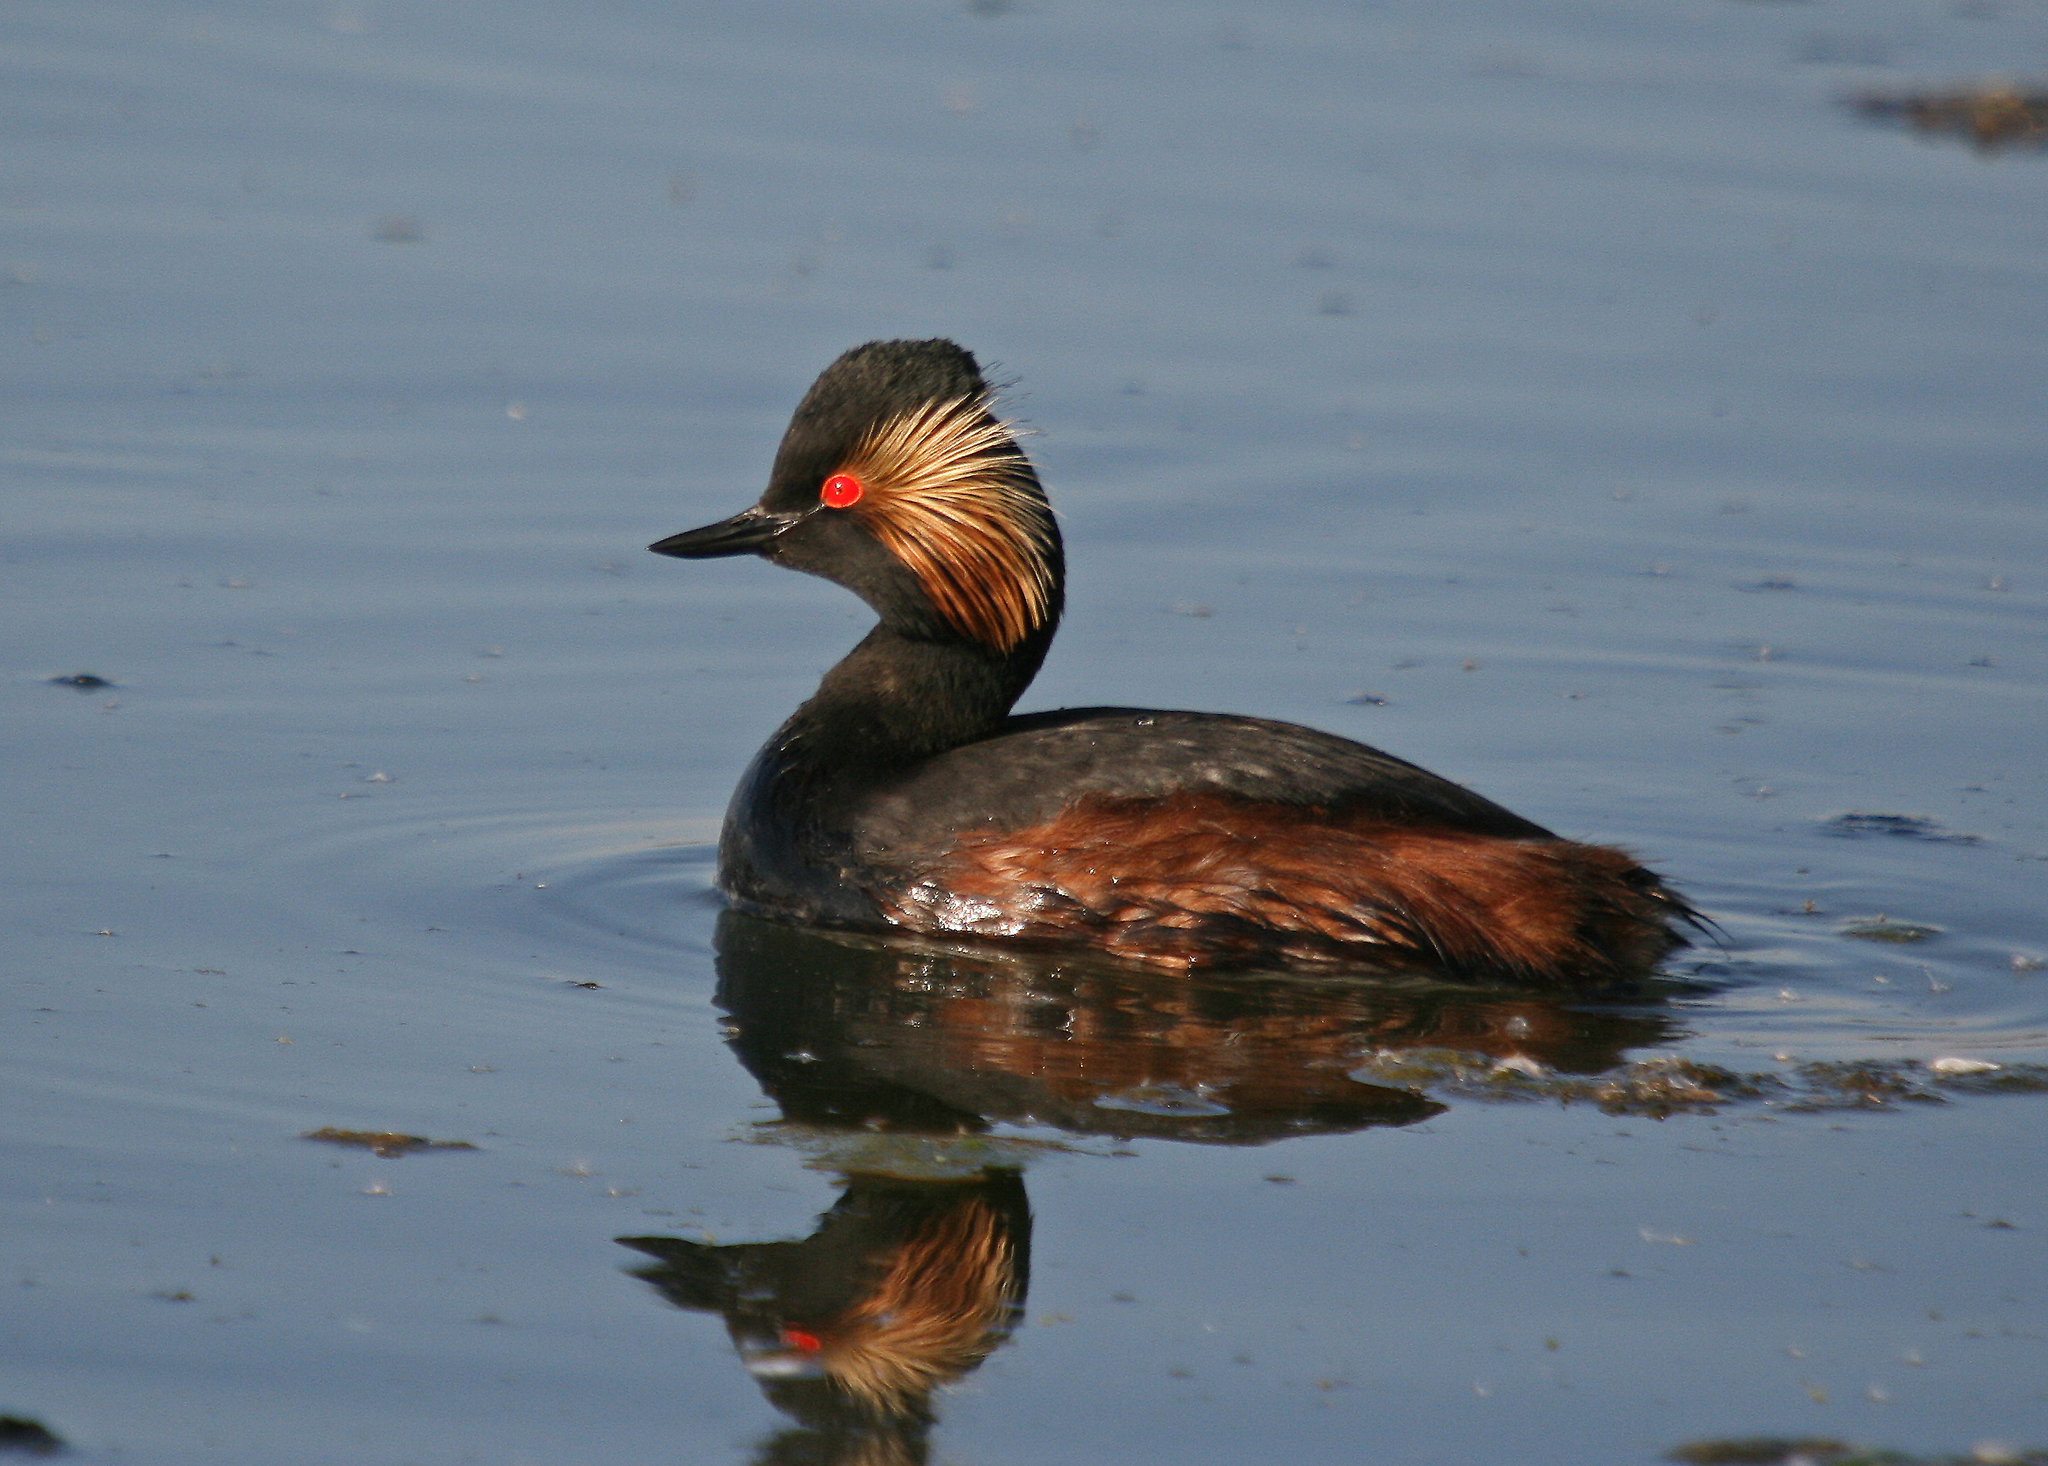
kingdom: Animalia
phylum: Chordata
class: Aves
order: Podicipediformes
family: Podicipedidae
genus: Podiceps
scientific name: Podiceps nigricollis
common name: Black-necked grebe
